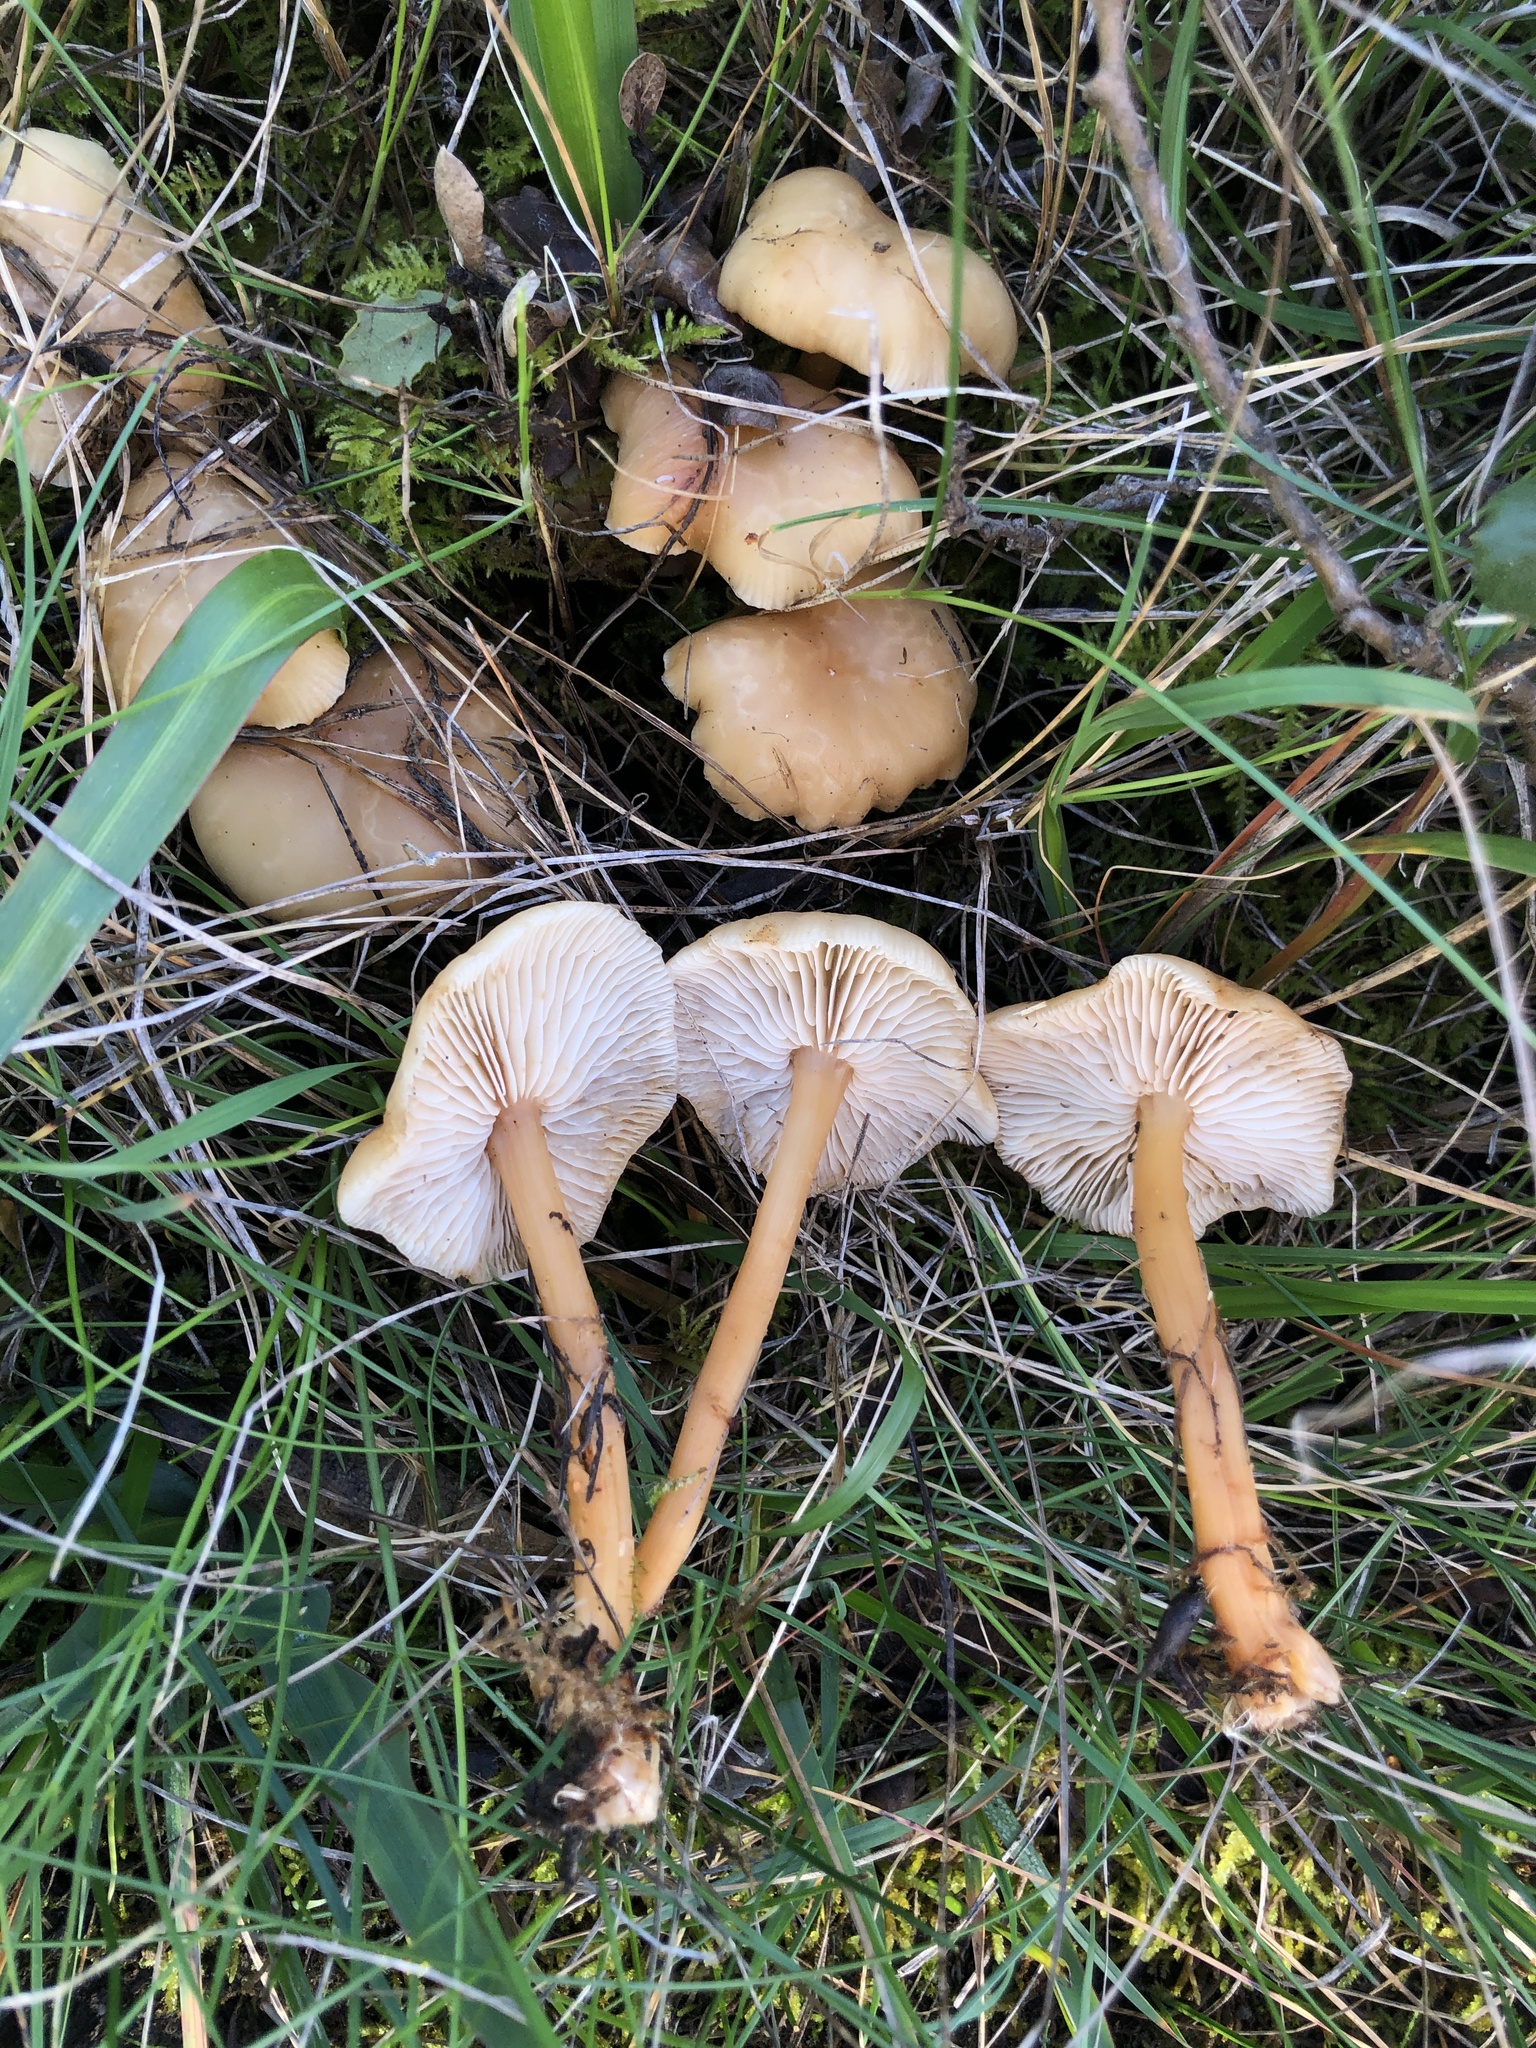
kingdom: Fungi
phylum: Basidiomycota
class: Agaricomycetes
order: Agaricales
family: Omphalotaceae
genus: Gymnopus
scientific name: Gymnopus dryophilus
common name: Penny top
